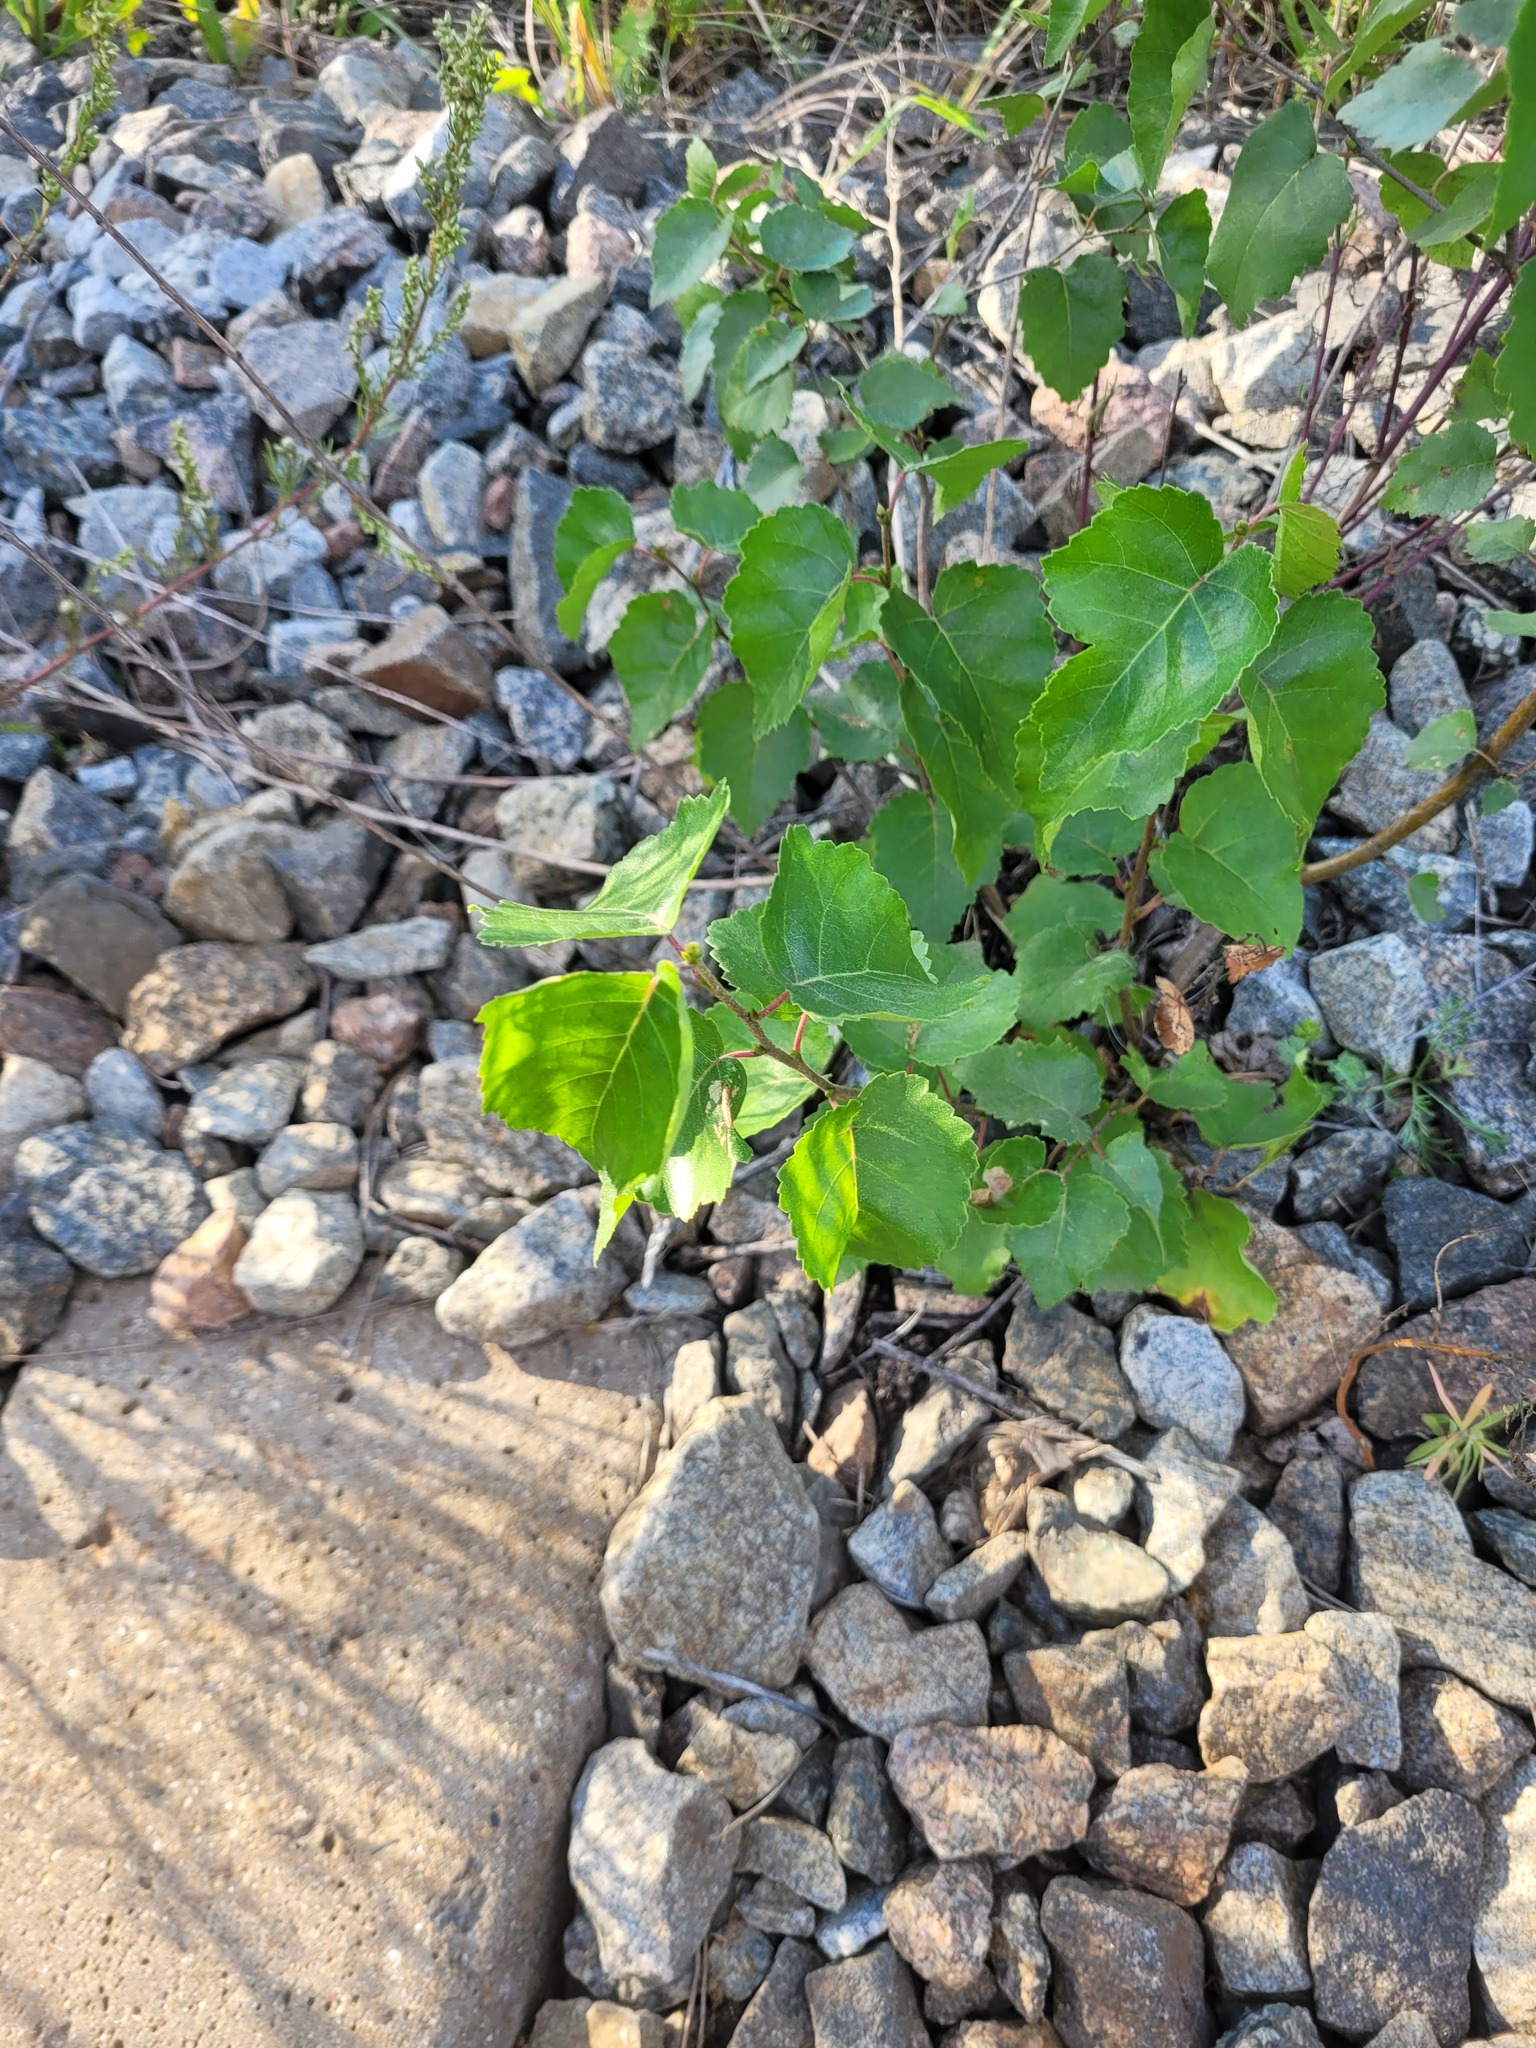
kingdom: Plantae
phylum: Tracheophyta
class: Magnoliopsida
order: Fagales
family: Betulaceae
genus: Betula
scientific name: Betula pendula
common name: Silver birch
